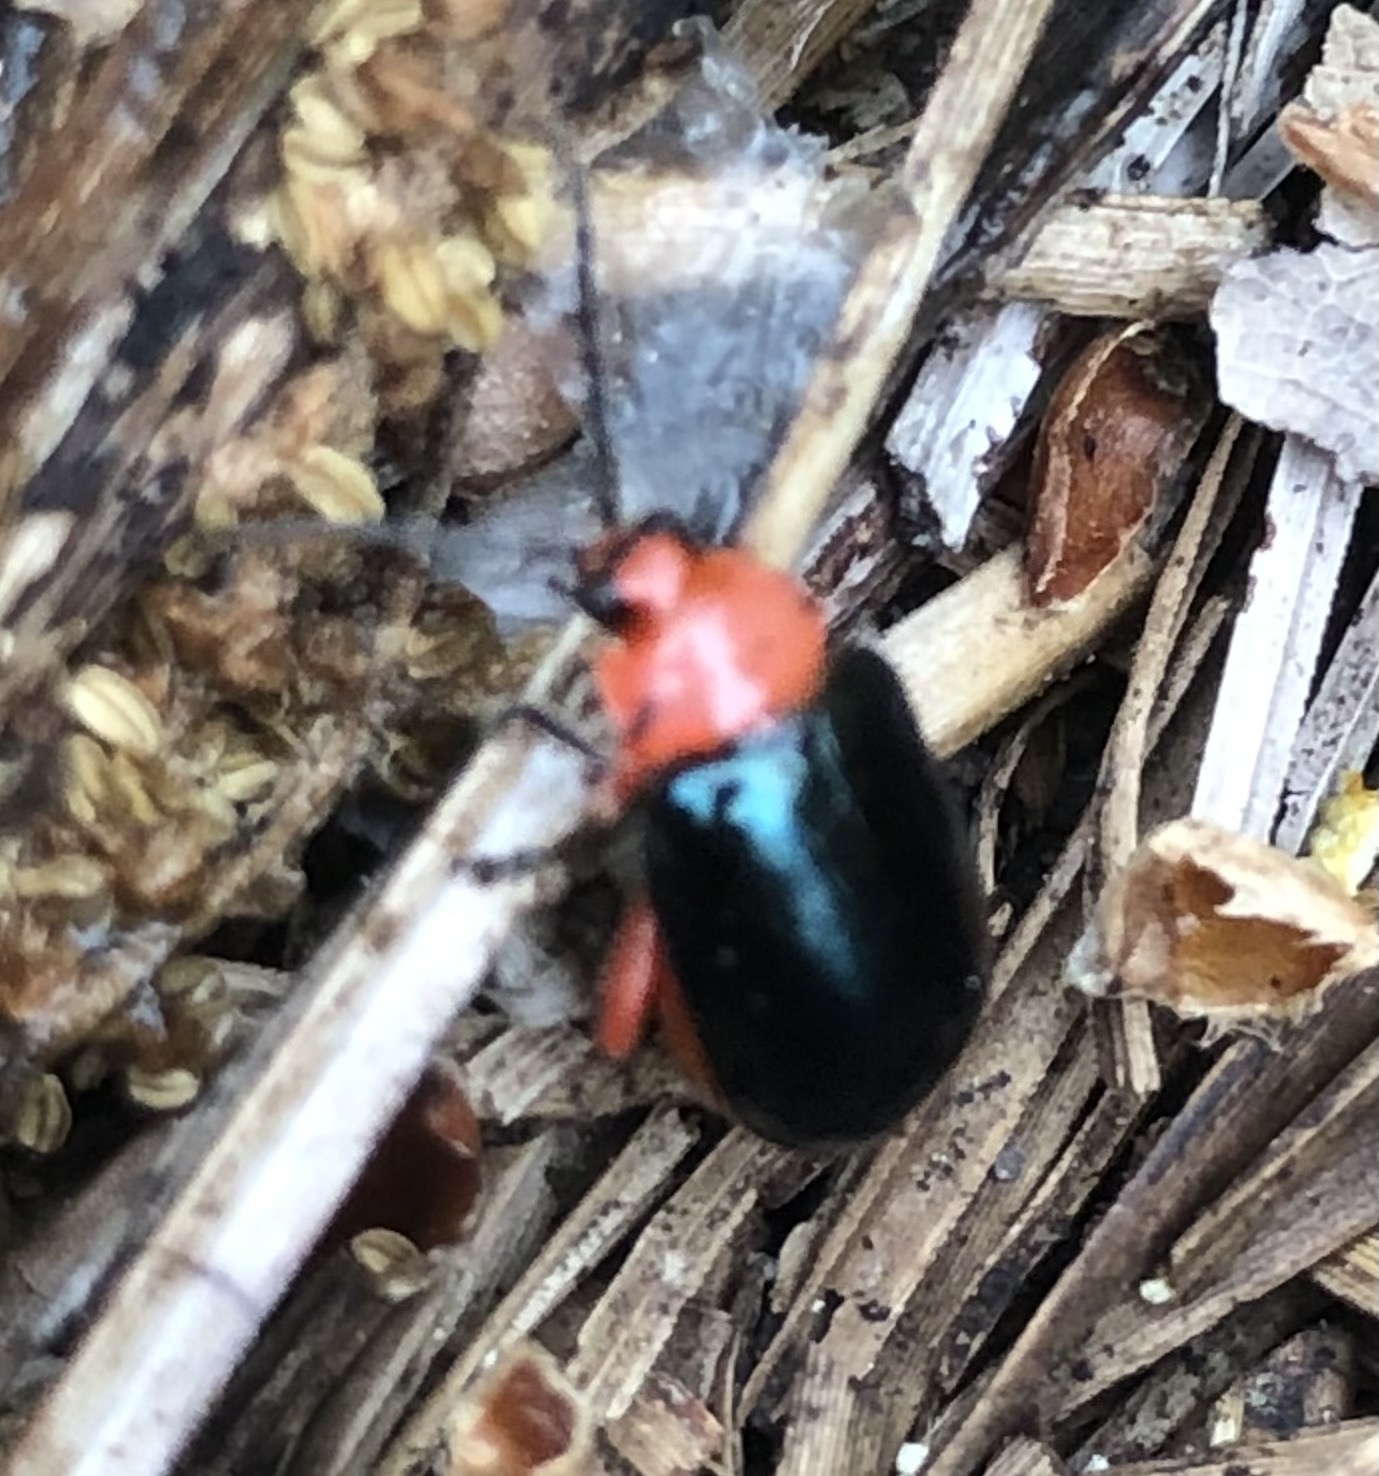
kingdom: Animalia
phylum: Arthropoda
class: Insecta
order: Coleoptera
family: Chrysomelidae
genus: Asphaera
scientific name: Asphaera lustrans
